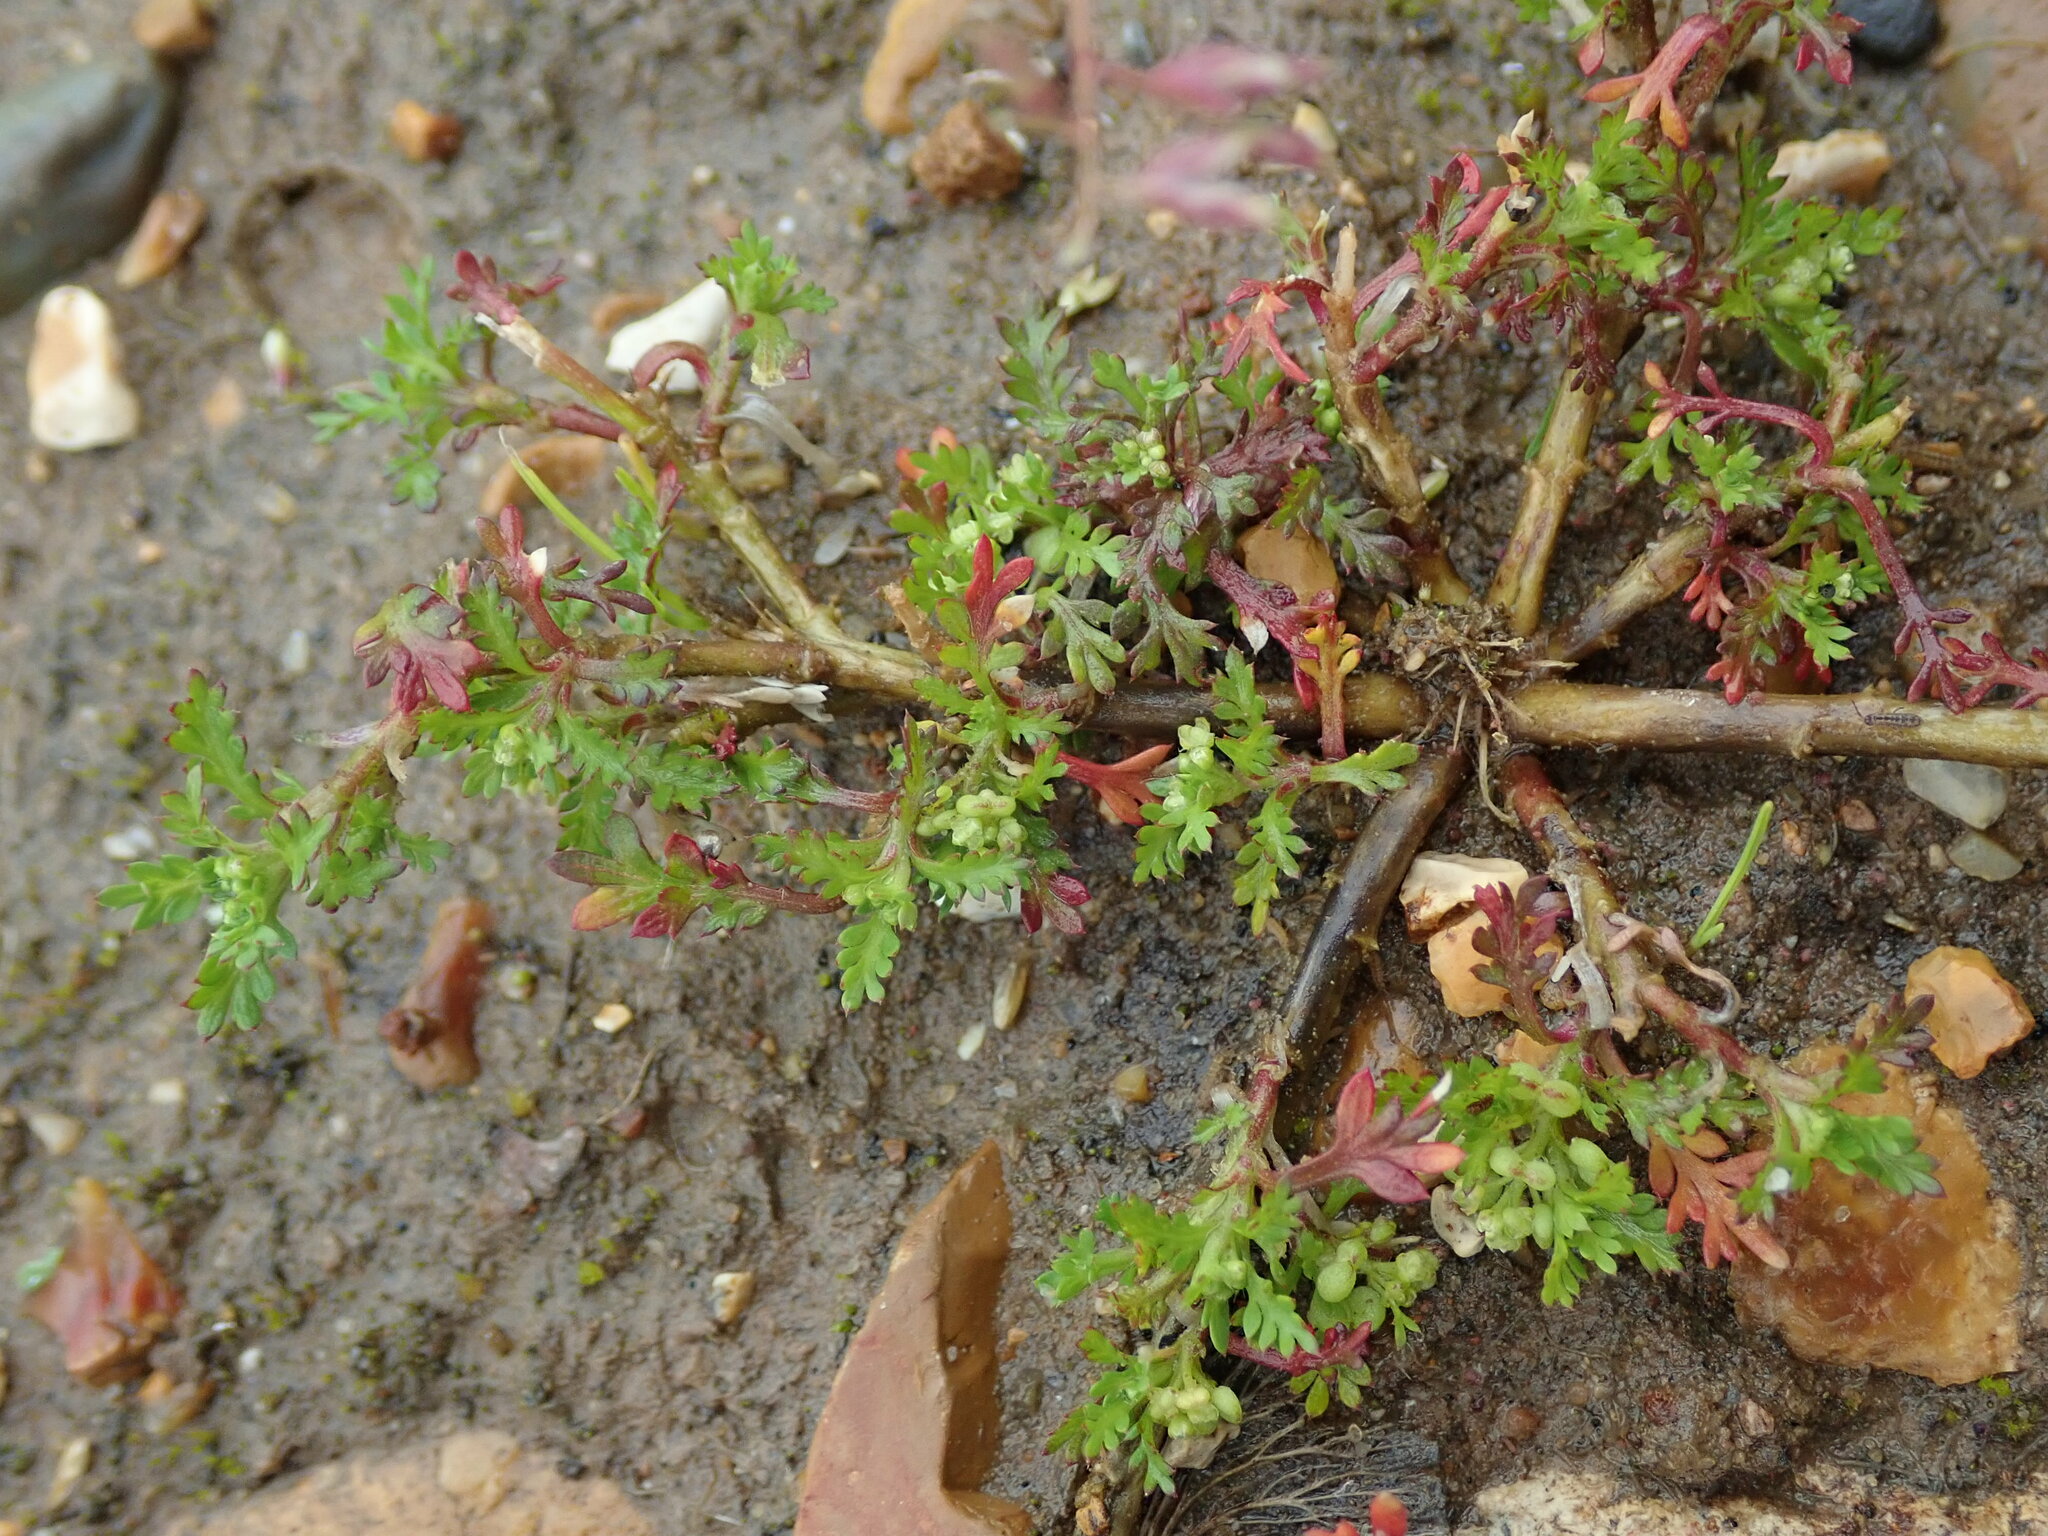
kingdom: Plantae
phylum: Tracheophyta
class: Magnoliopsida
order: Brassicales
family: Brassicaceae
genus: Lepidium
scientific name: Lepidium didymum
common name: Lesser swinecress
